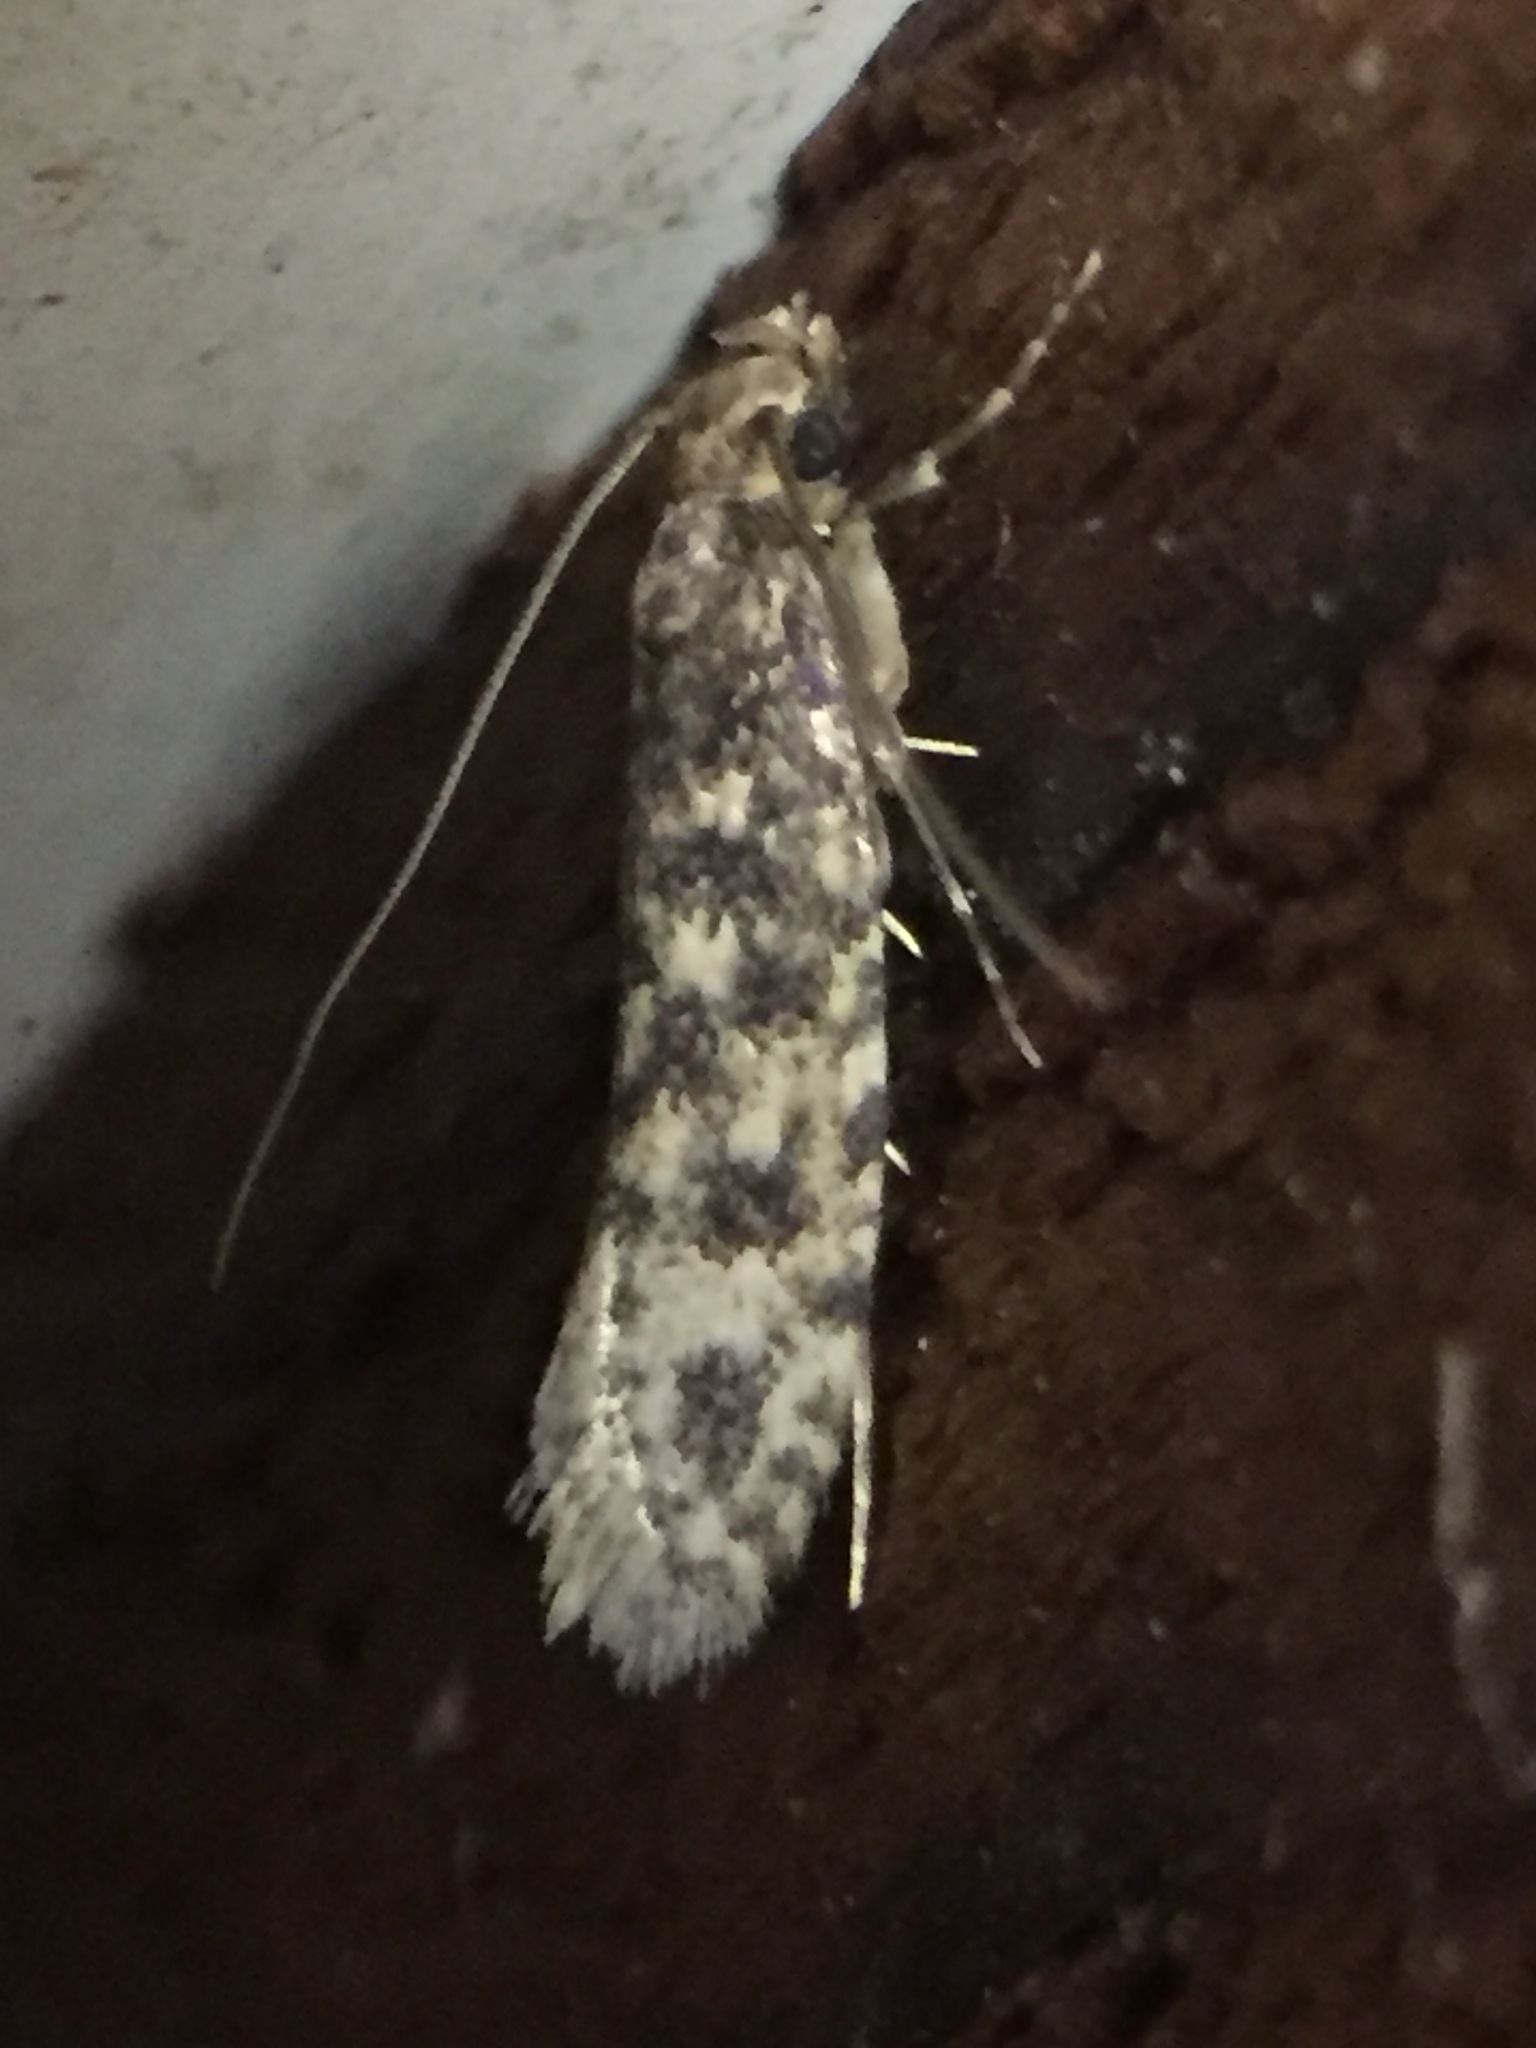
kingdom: Animalia
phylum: Arthropoda
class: Insecta
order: Lepidoptera
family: Tineidae
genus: Lindera
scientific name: Lindera tessellatella
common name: Moth
